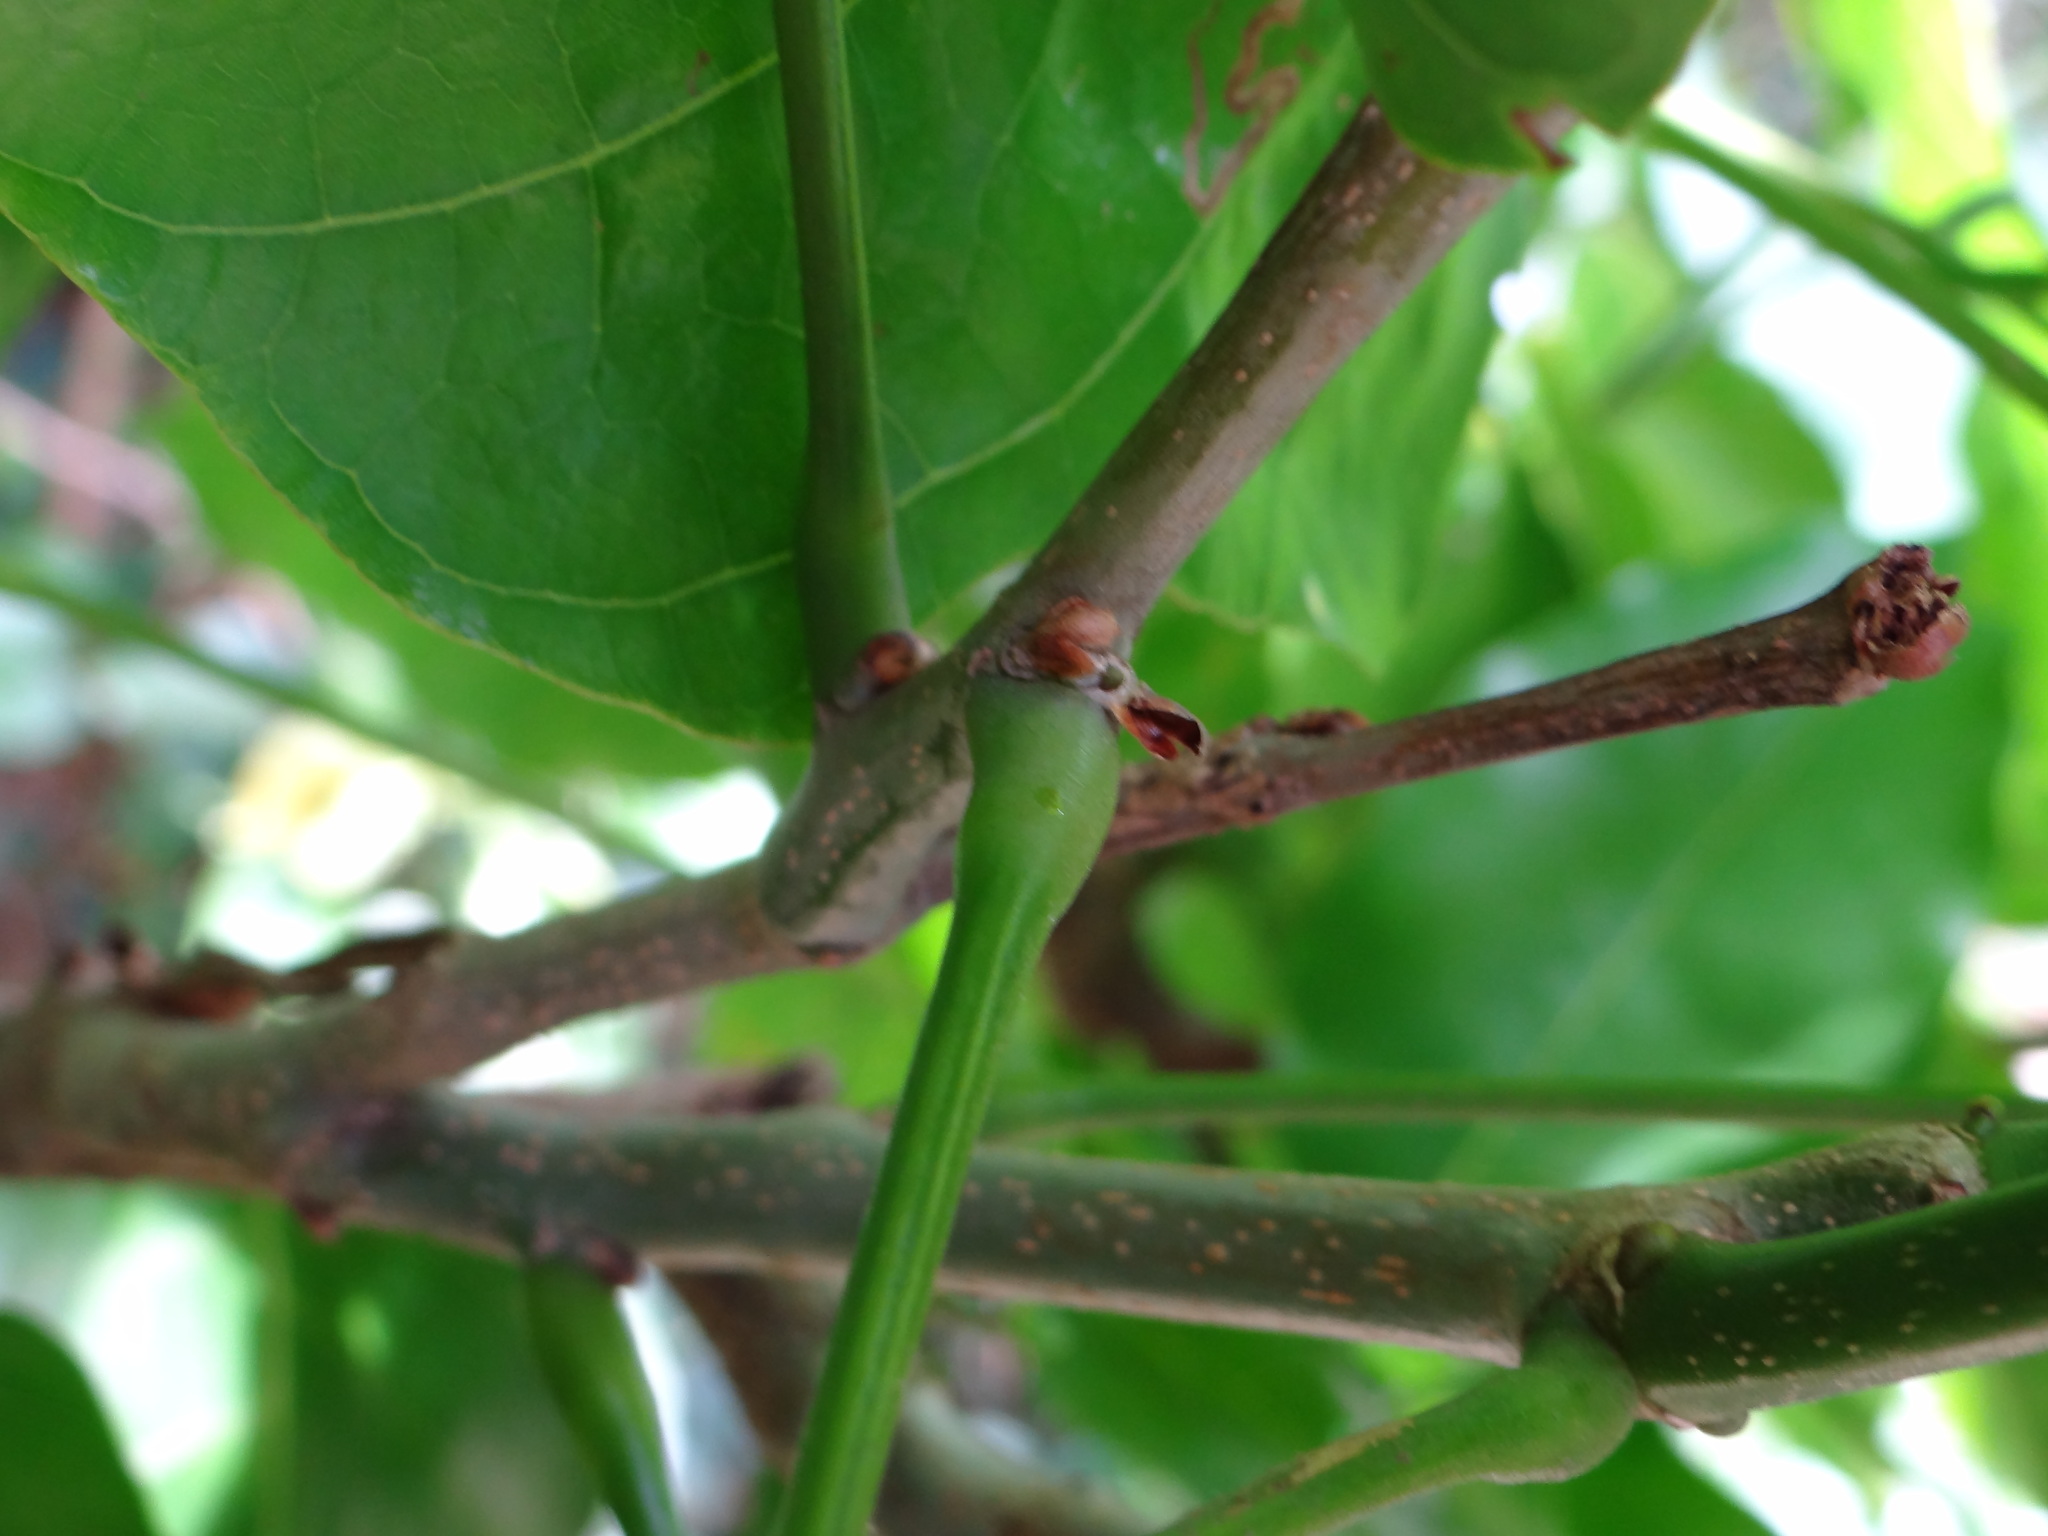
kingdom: Plantae
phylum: Tracheophyta
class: Magnoliopsida
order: Fabales
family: Fabaceae
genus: Pongamia
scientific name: Pongamia pinnata
